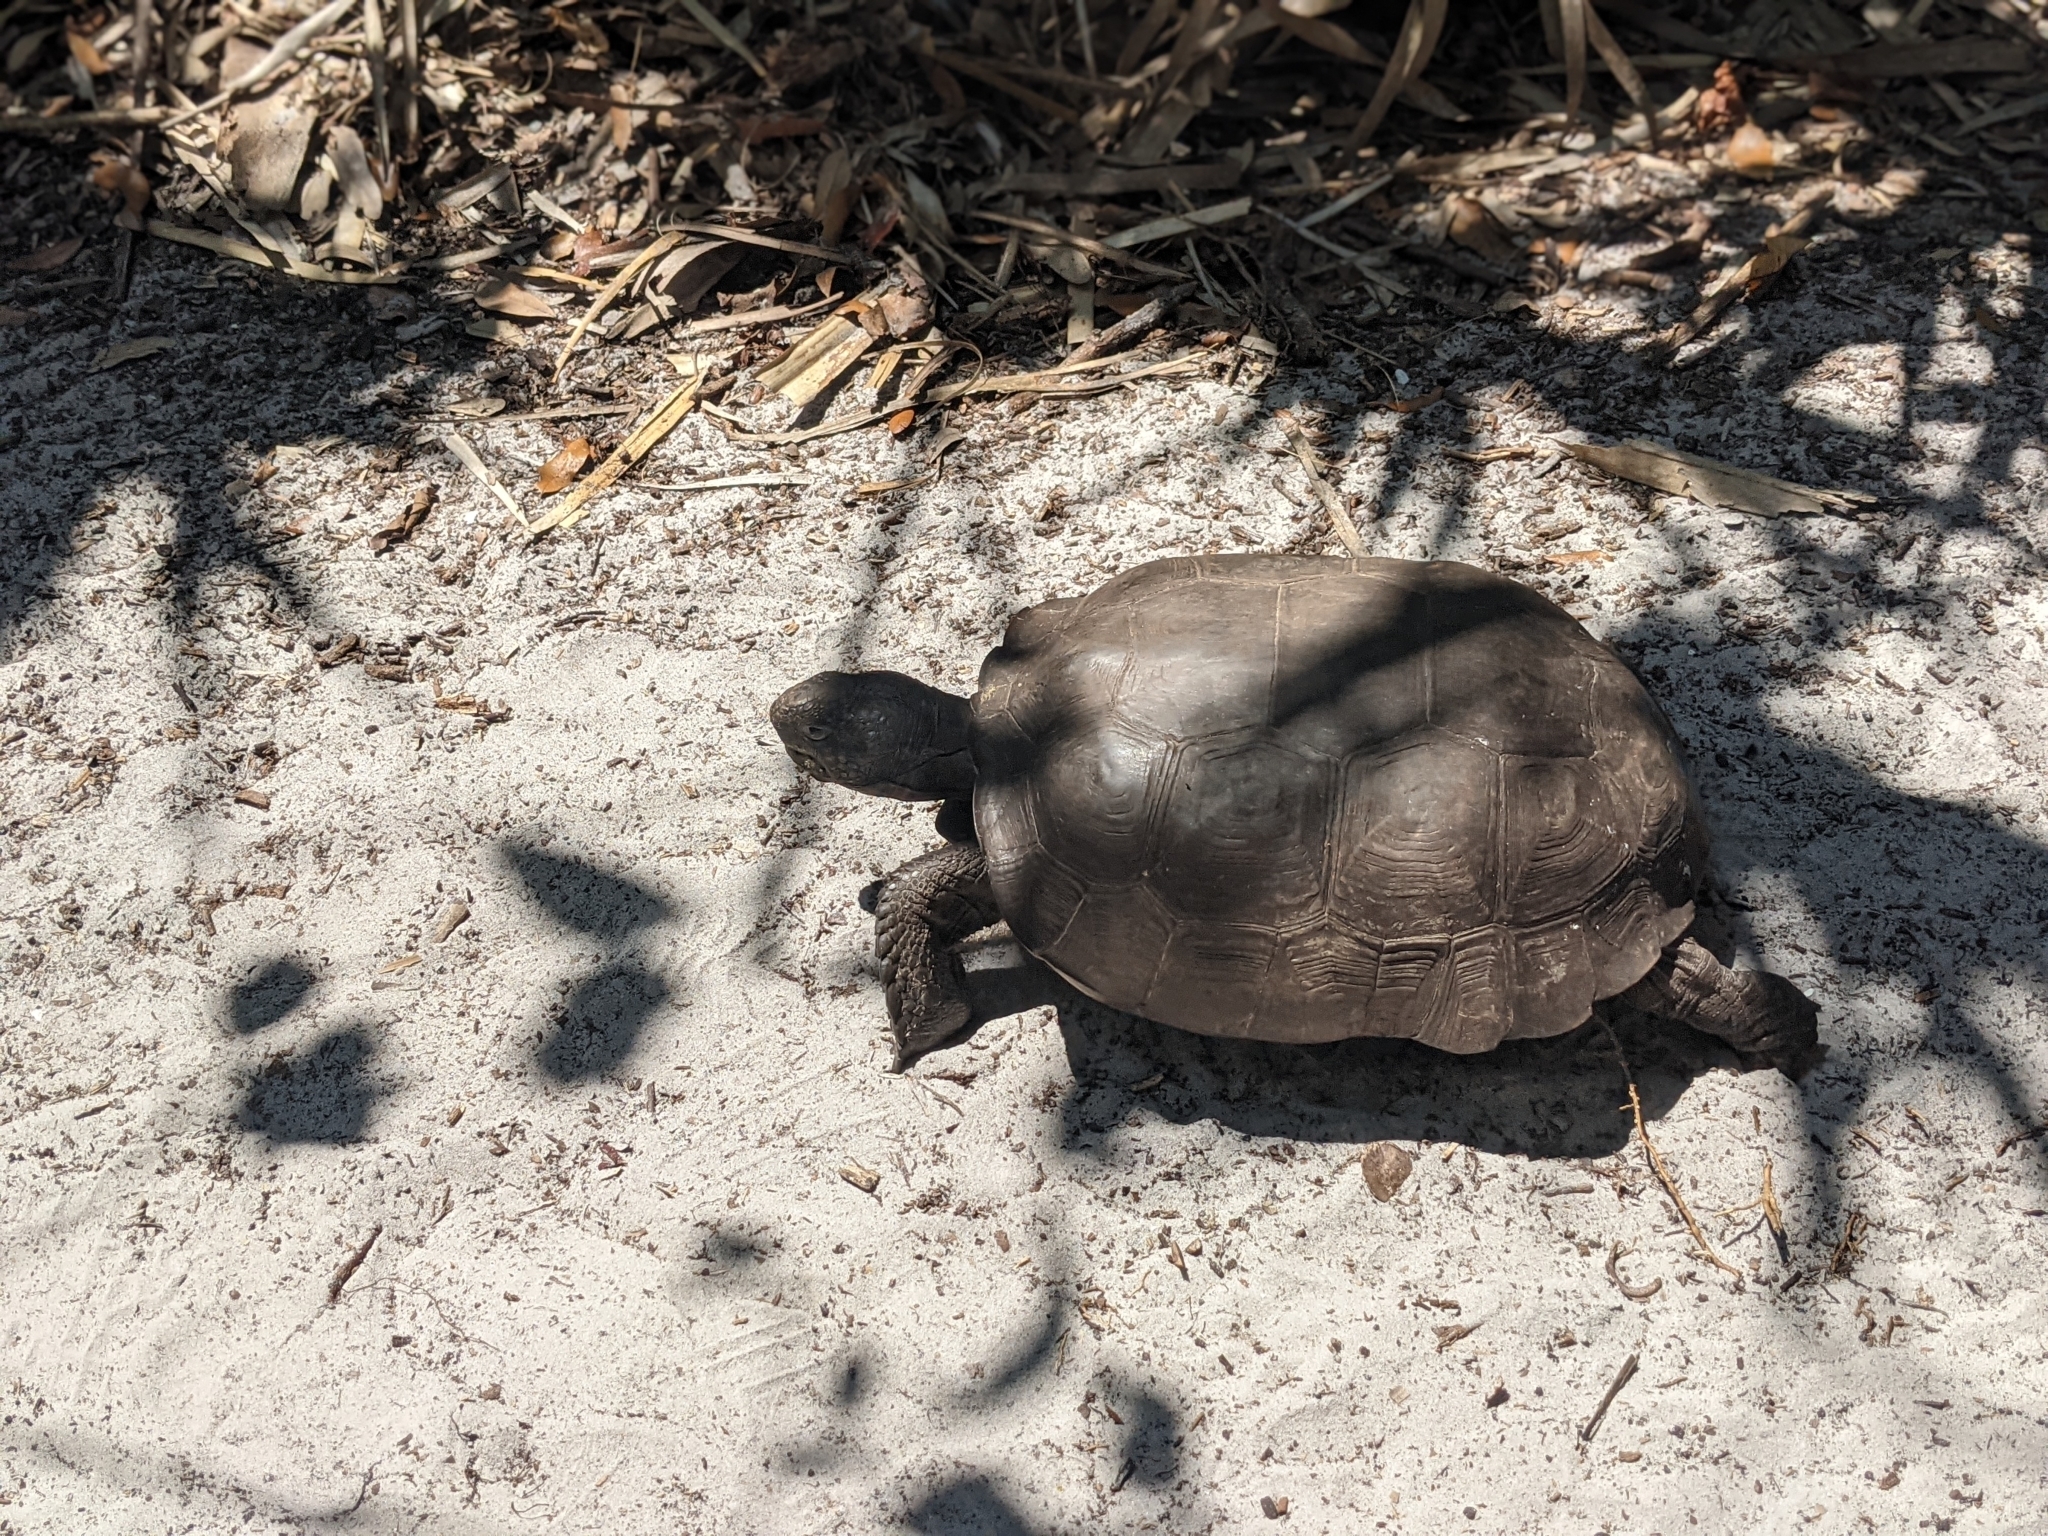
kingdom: Animalia
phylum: Chordata
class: Testudines
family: Testudinidae
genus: Gopherus
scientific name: Gopherus polyphemus
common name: Florida gopher tortoise
